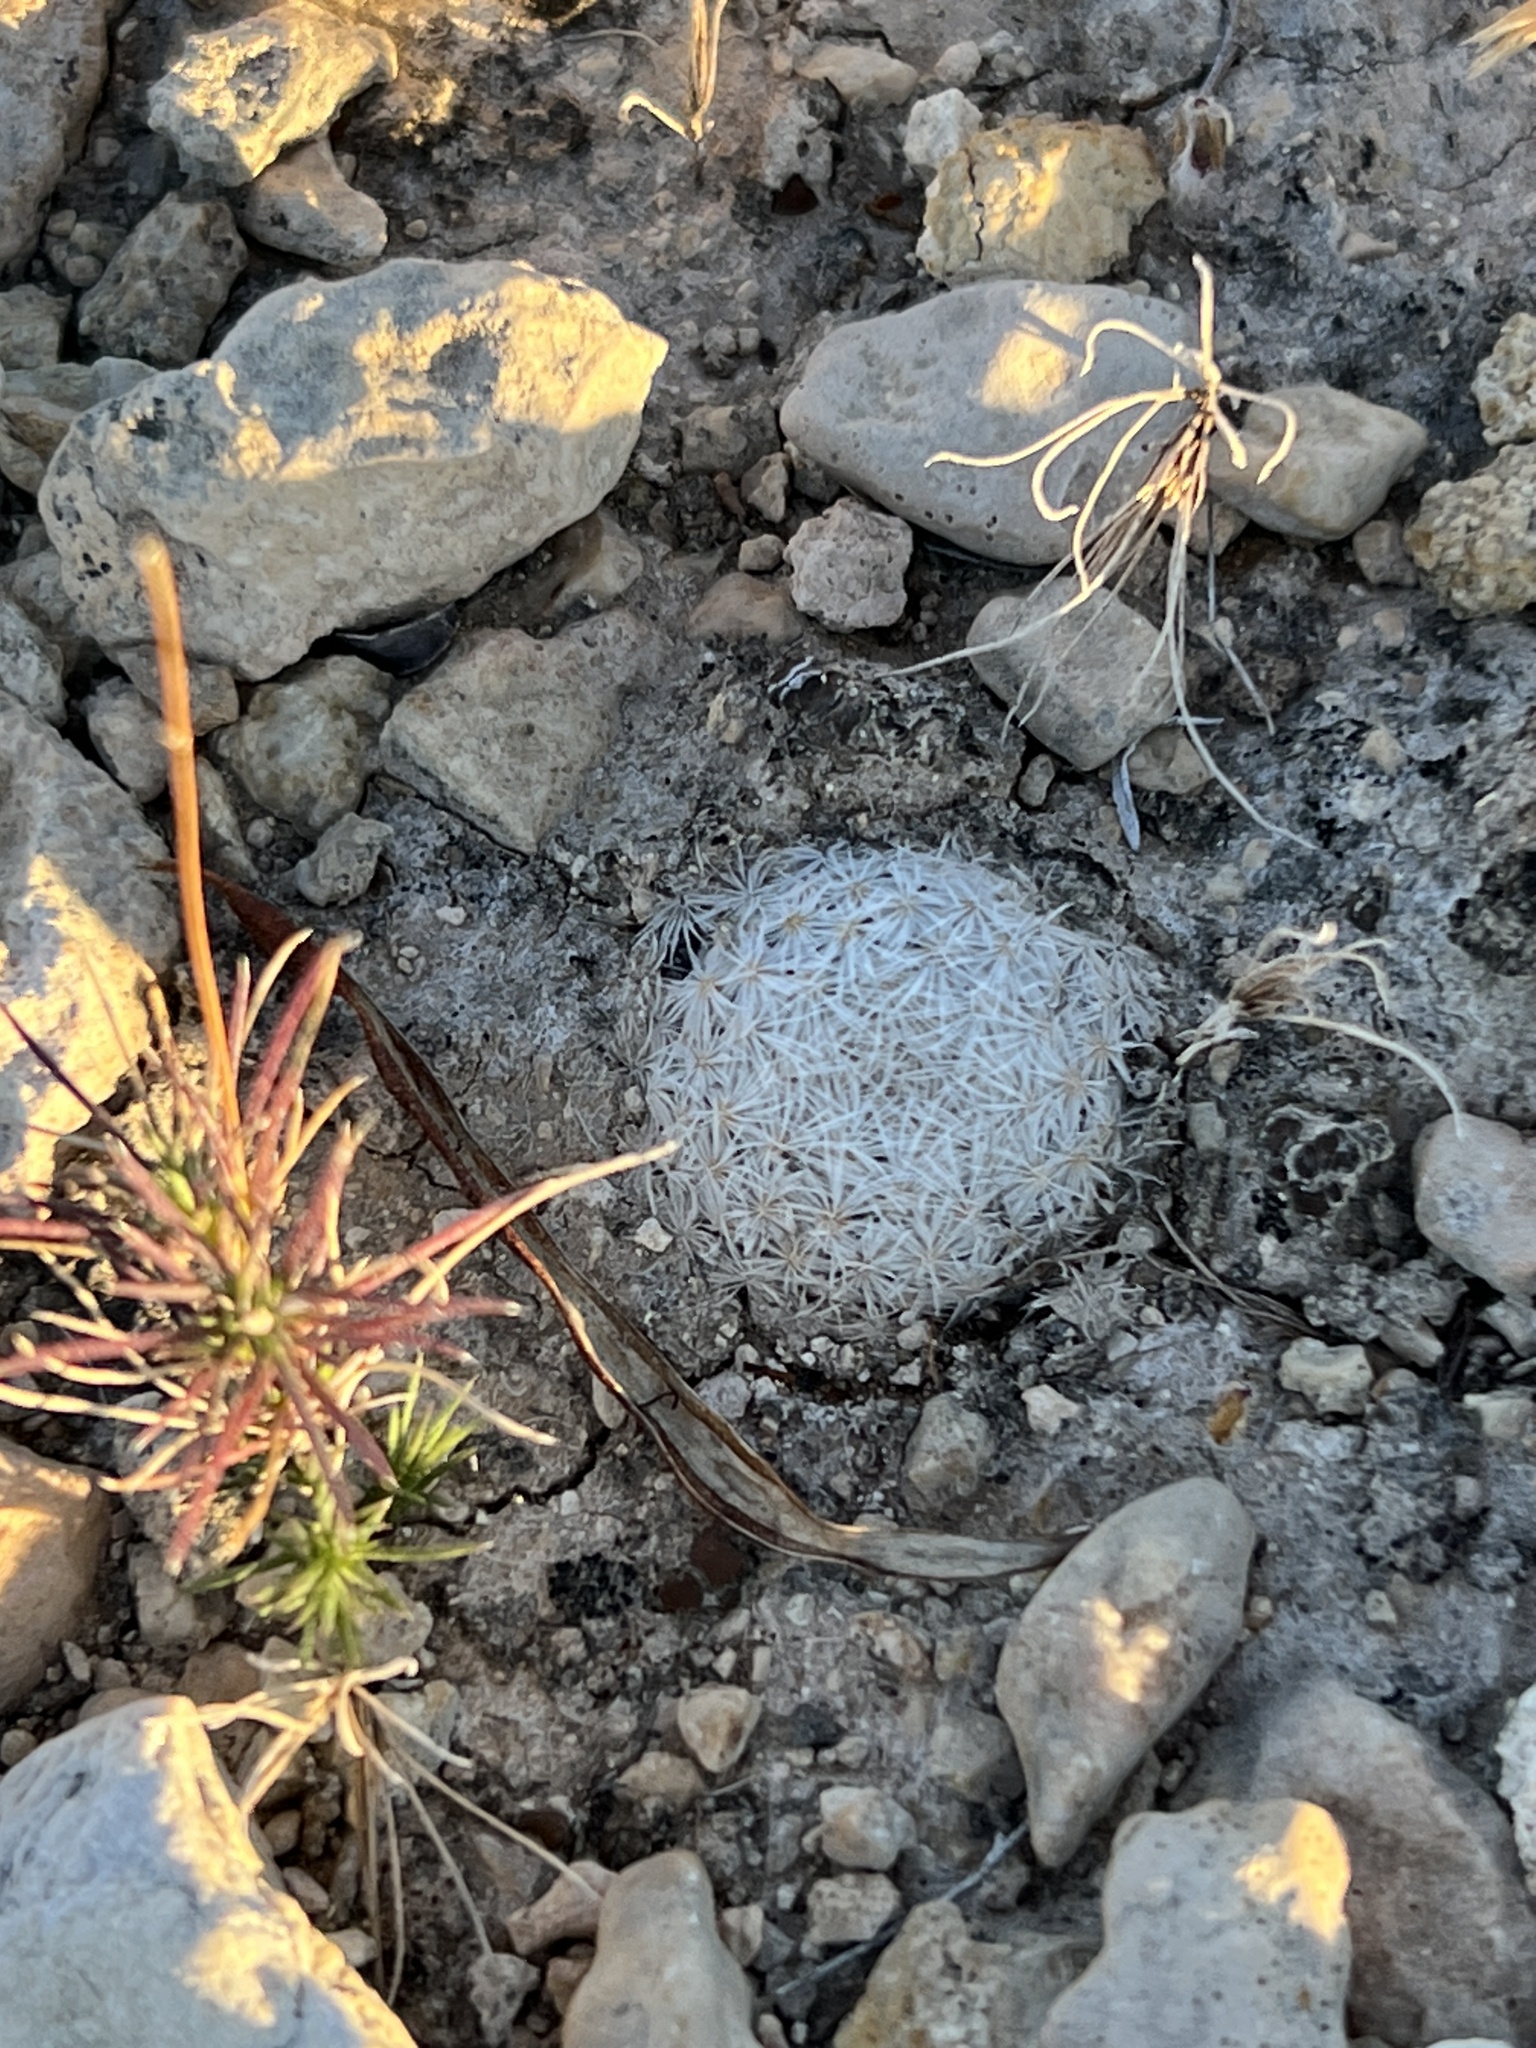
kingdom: Plantae
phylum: Tracheophyta
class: Magnoliopsida
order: Caryophyllales
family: Cactaceae
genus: Mammillaria
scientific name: Mammillaria lasiacantha
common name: Lace-spine nipple cactus
